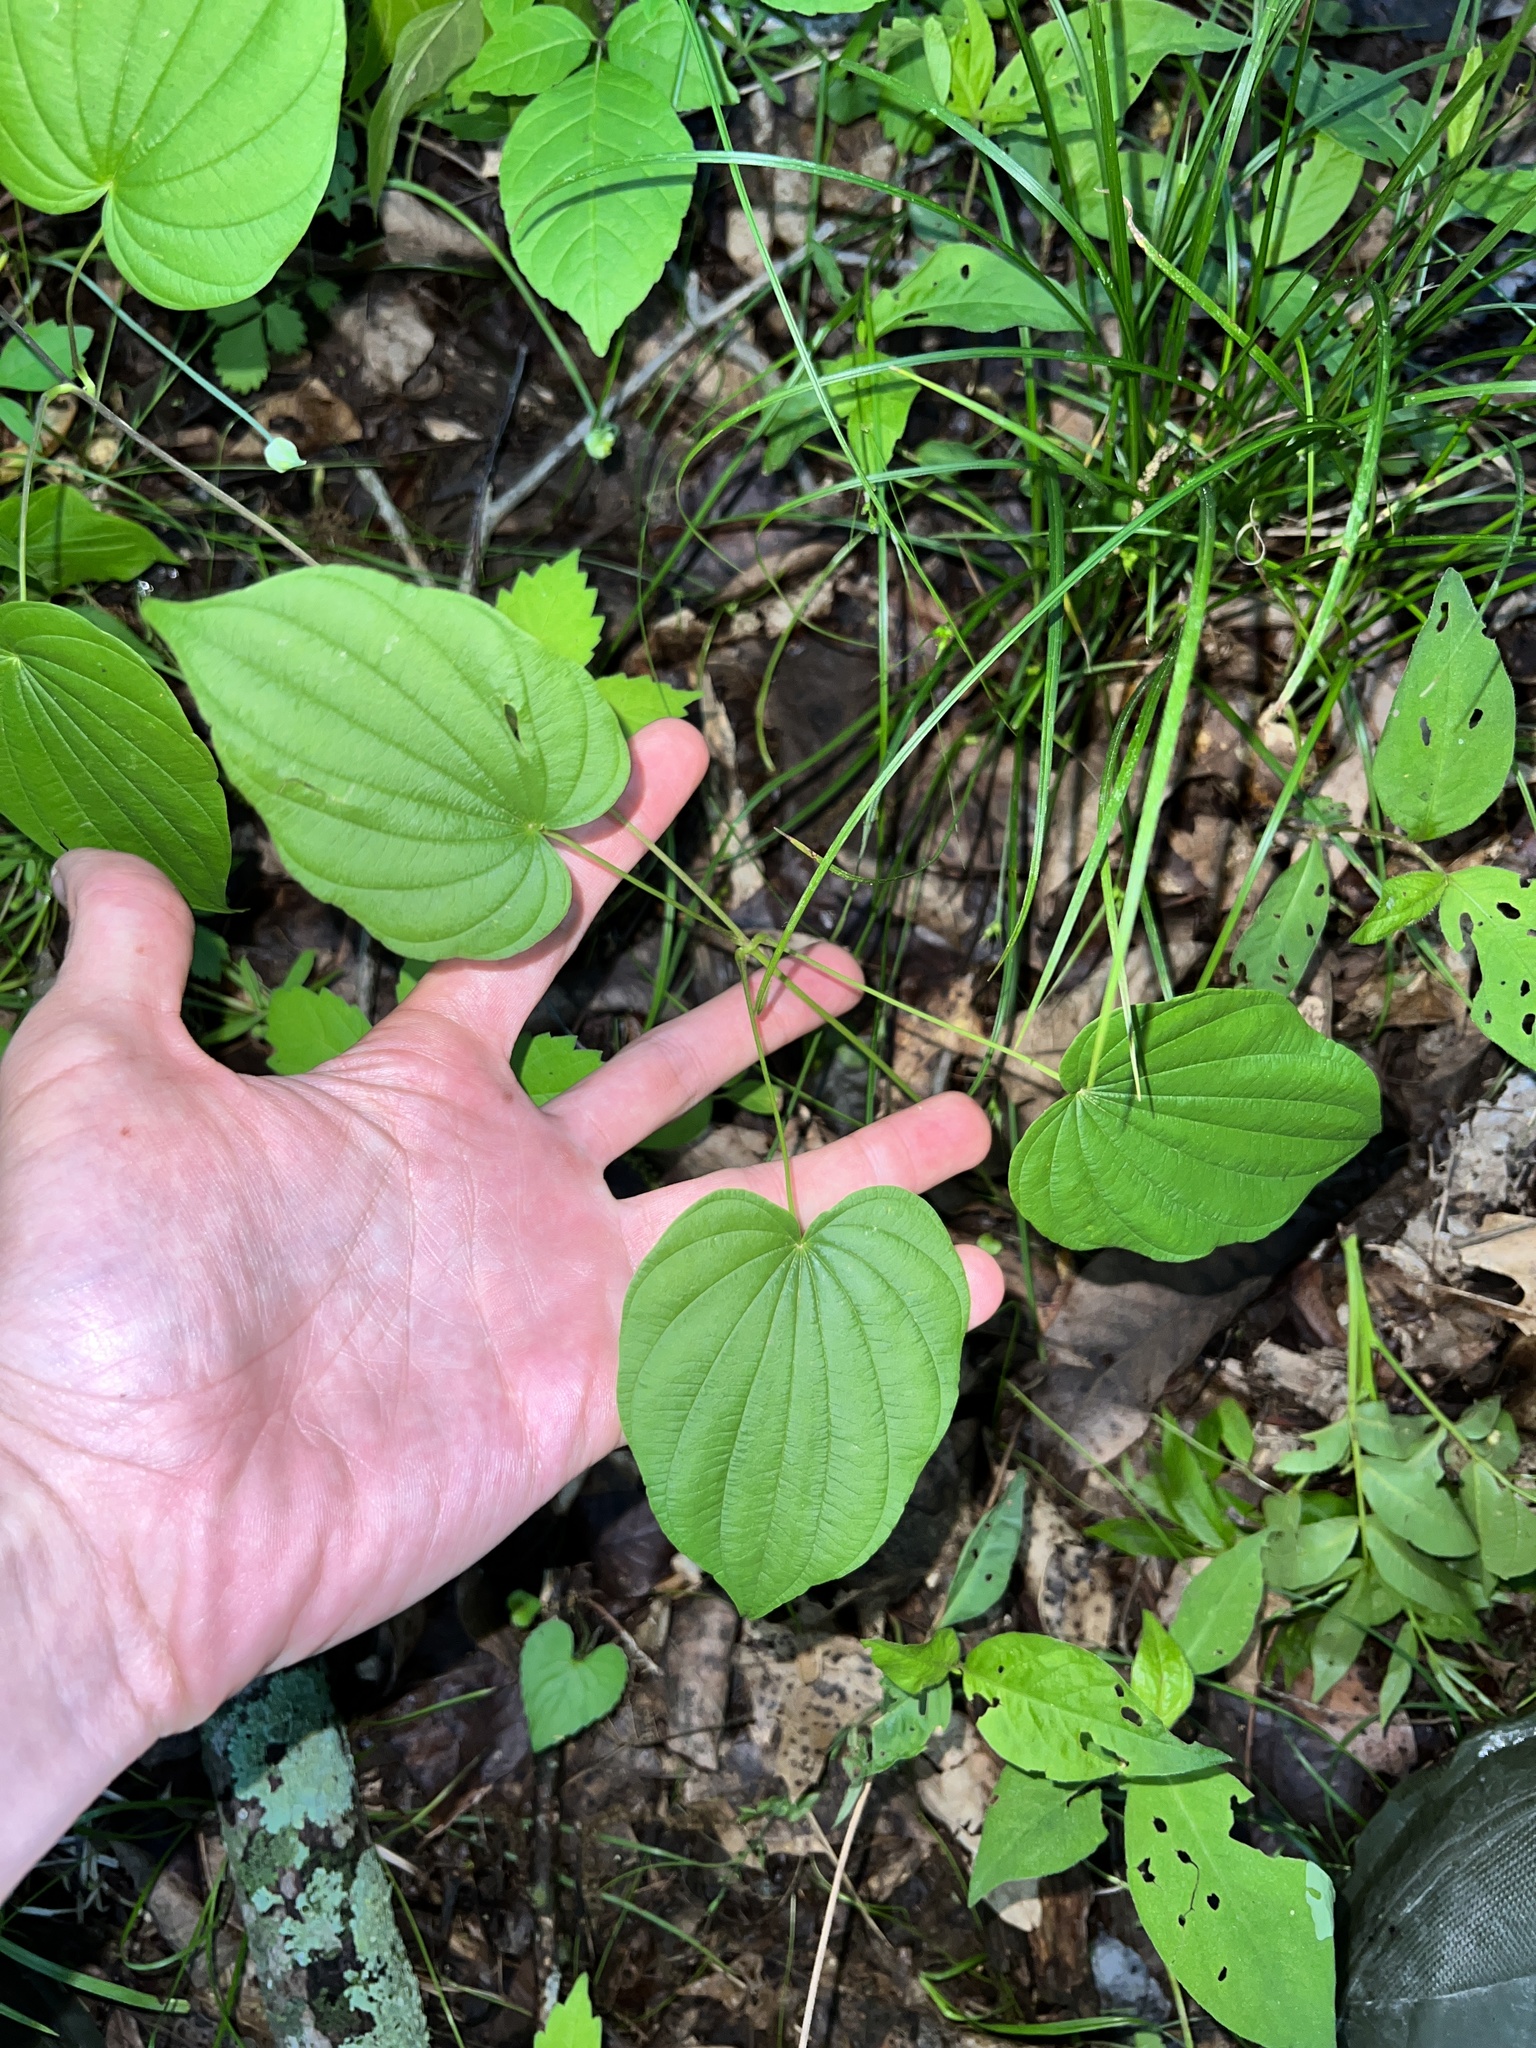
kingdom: Plantae
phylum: Tracheophyta
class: Liliopsida
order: Dioscoreales
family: Dioscoreaceae
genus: Dioscorea
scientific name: Dioscorea villosa
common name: Wild yam
